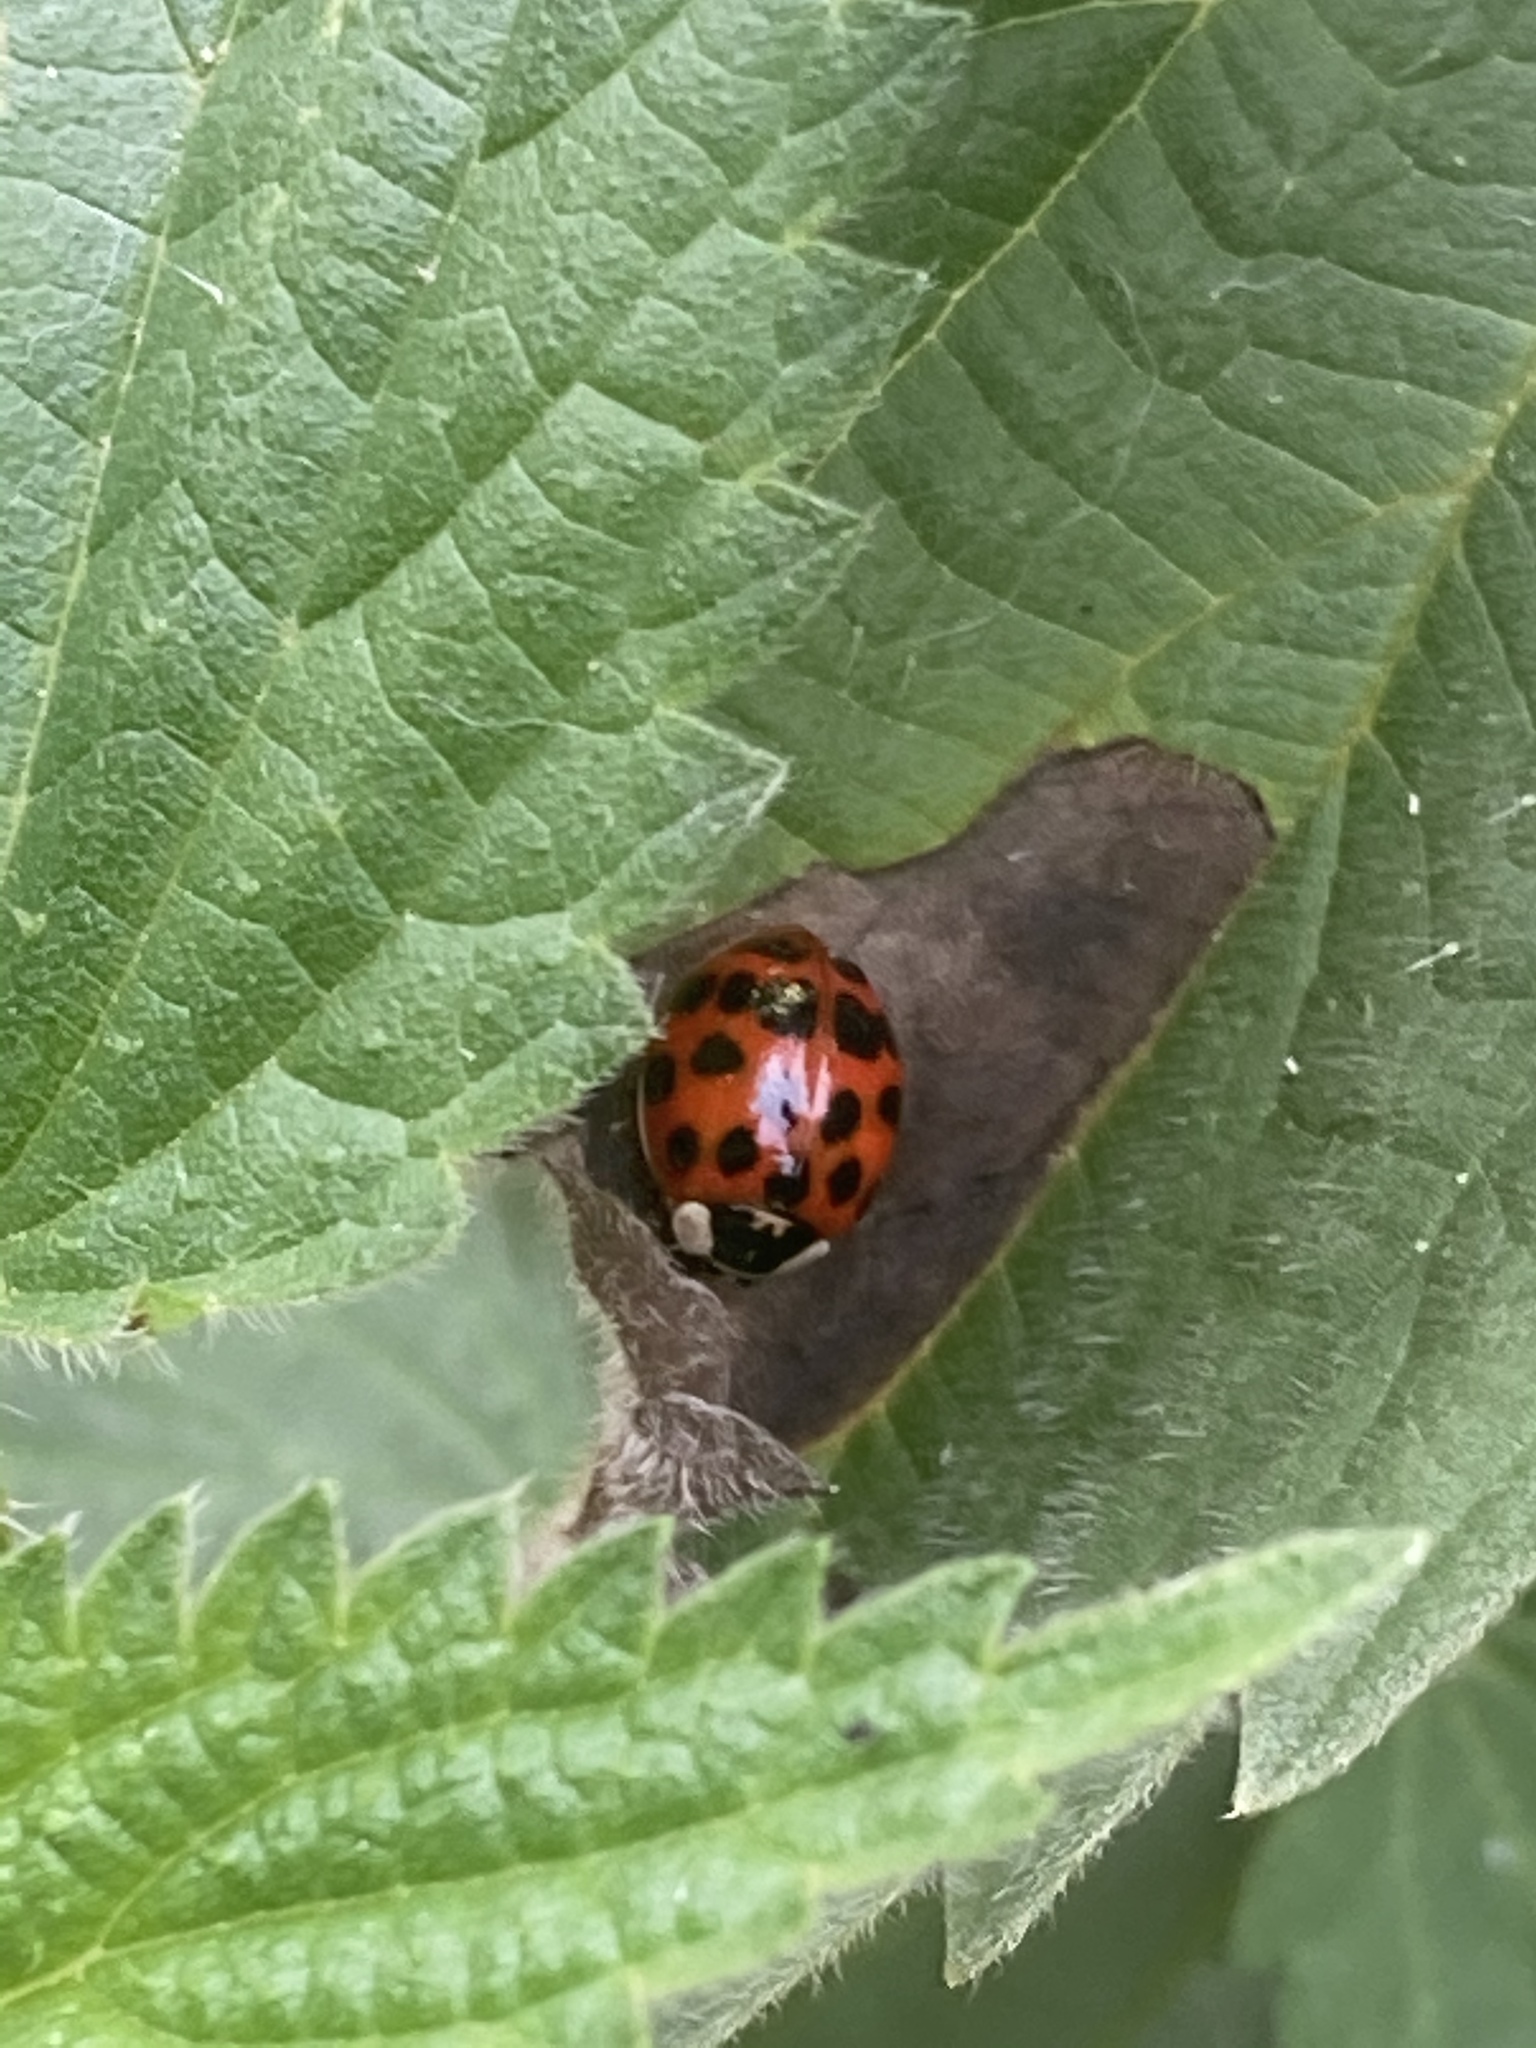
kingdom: Animalia
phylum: Arthropoda
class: Insecta
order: Coleoptera
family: Coccinellidae
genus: Harmonia
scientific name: Harmonia axyridis
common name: Harlequin ladybird
